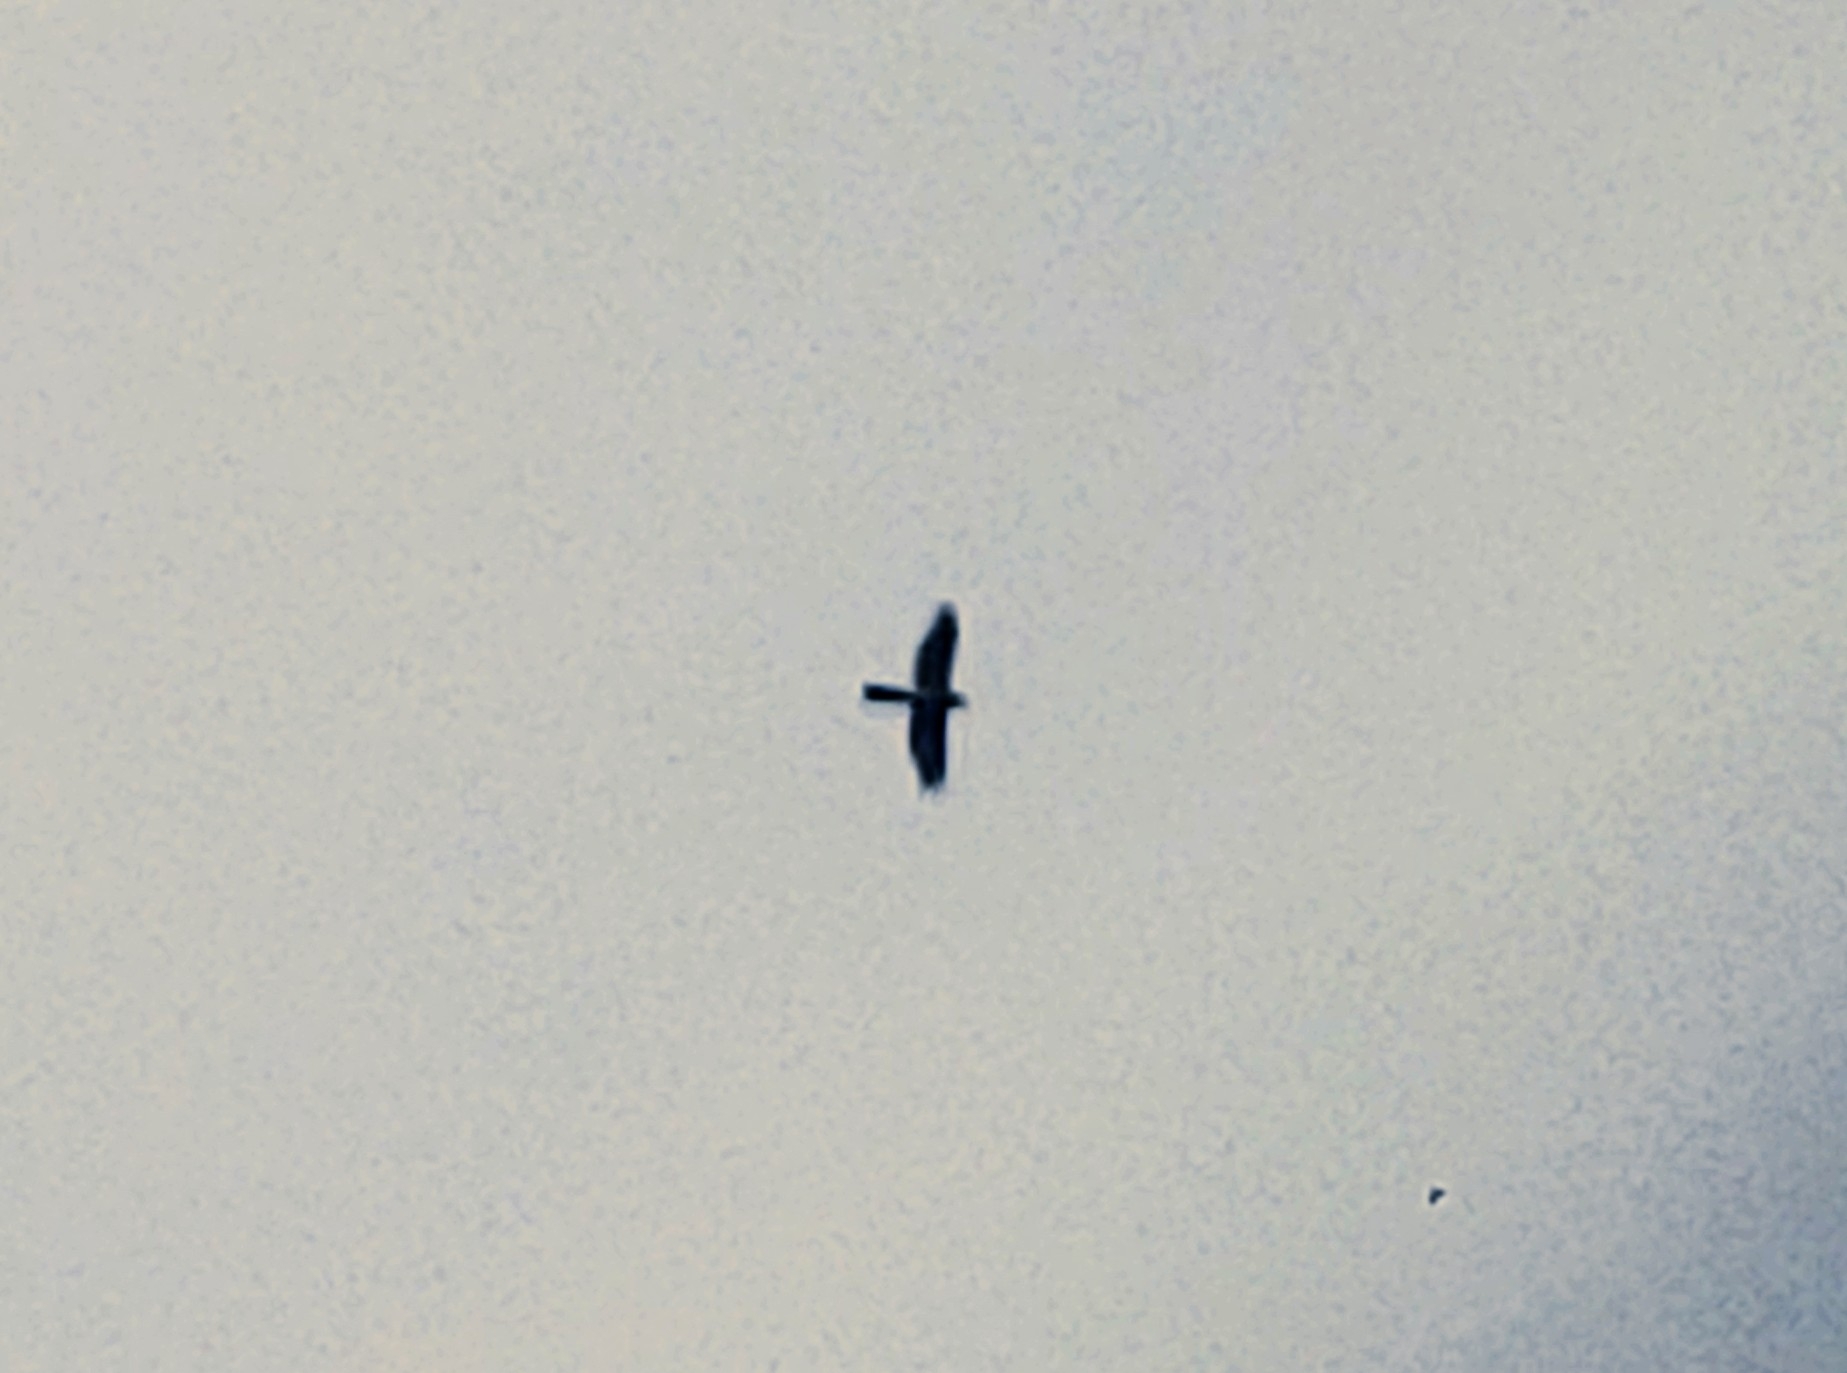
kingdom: Animalia
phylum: Chordata
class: Aves
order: Accipitriformes
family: Accipitridae
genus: Accipiter
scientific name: Accipiter cooperii
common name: Cooper's hawk
